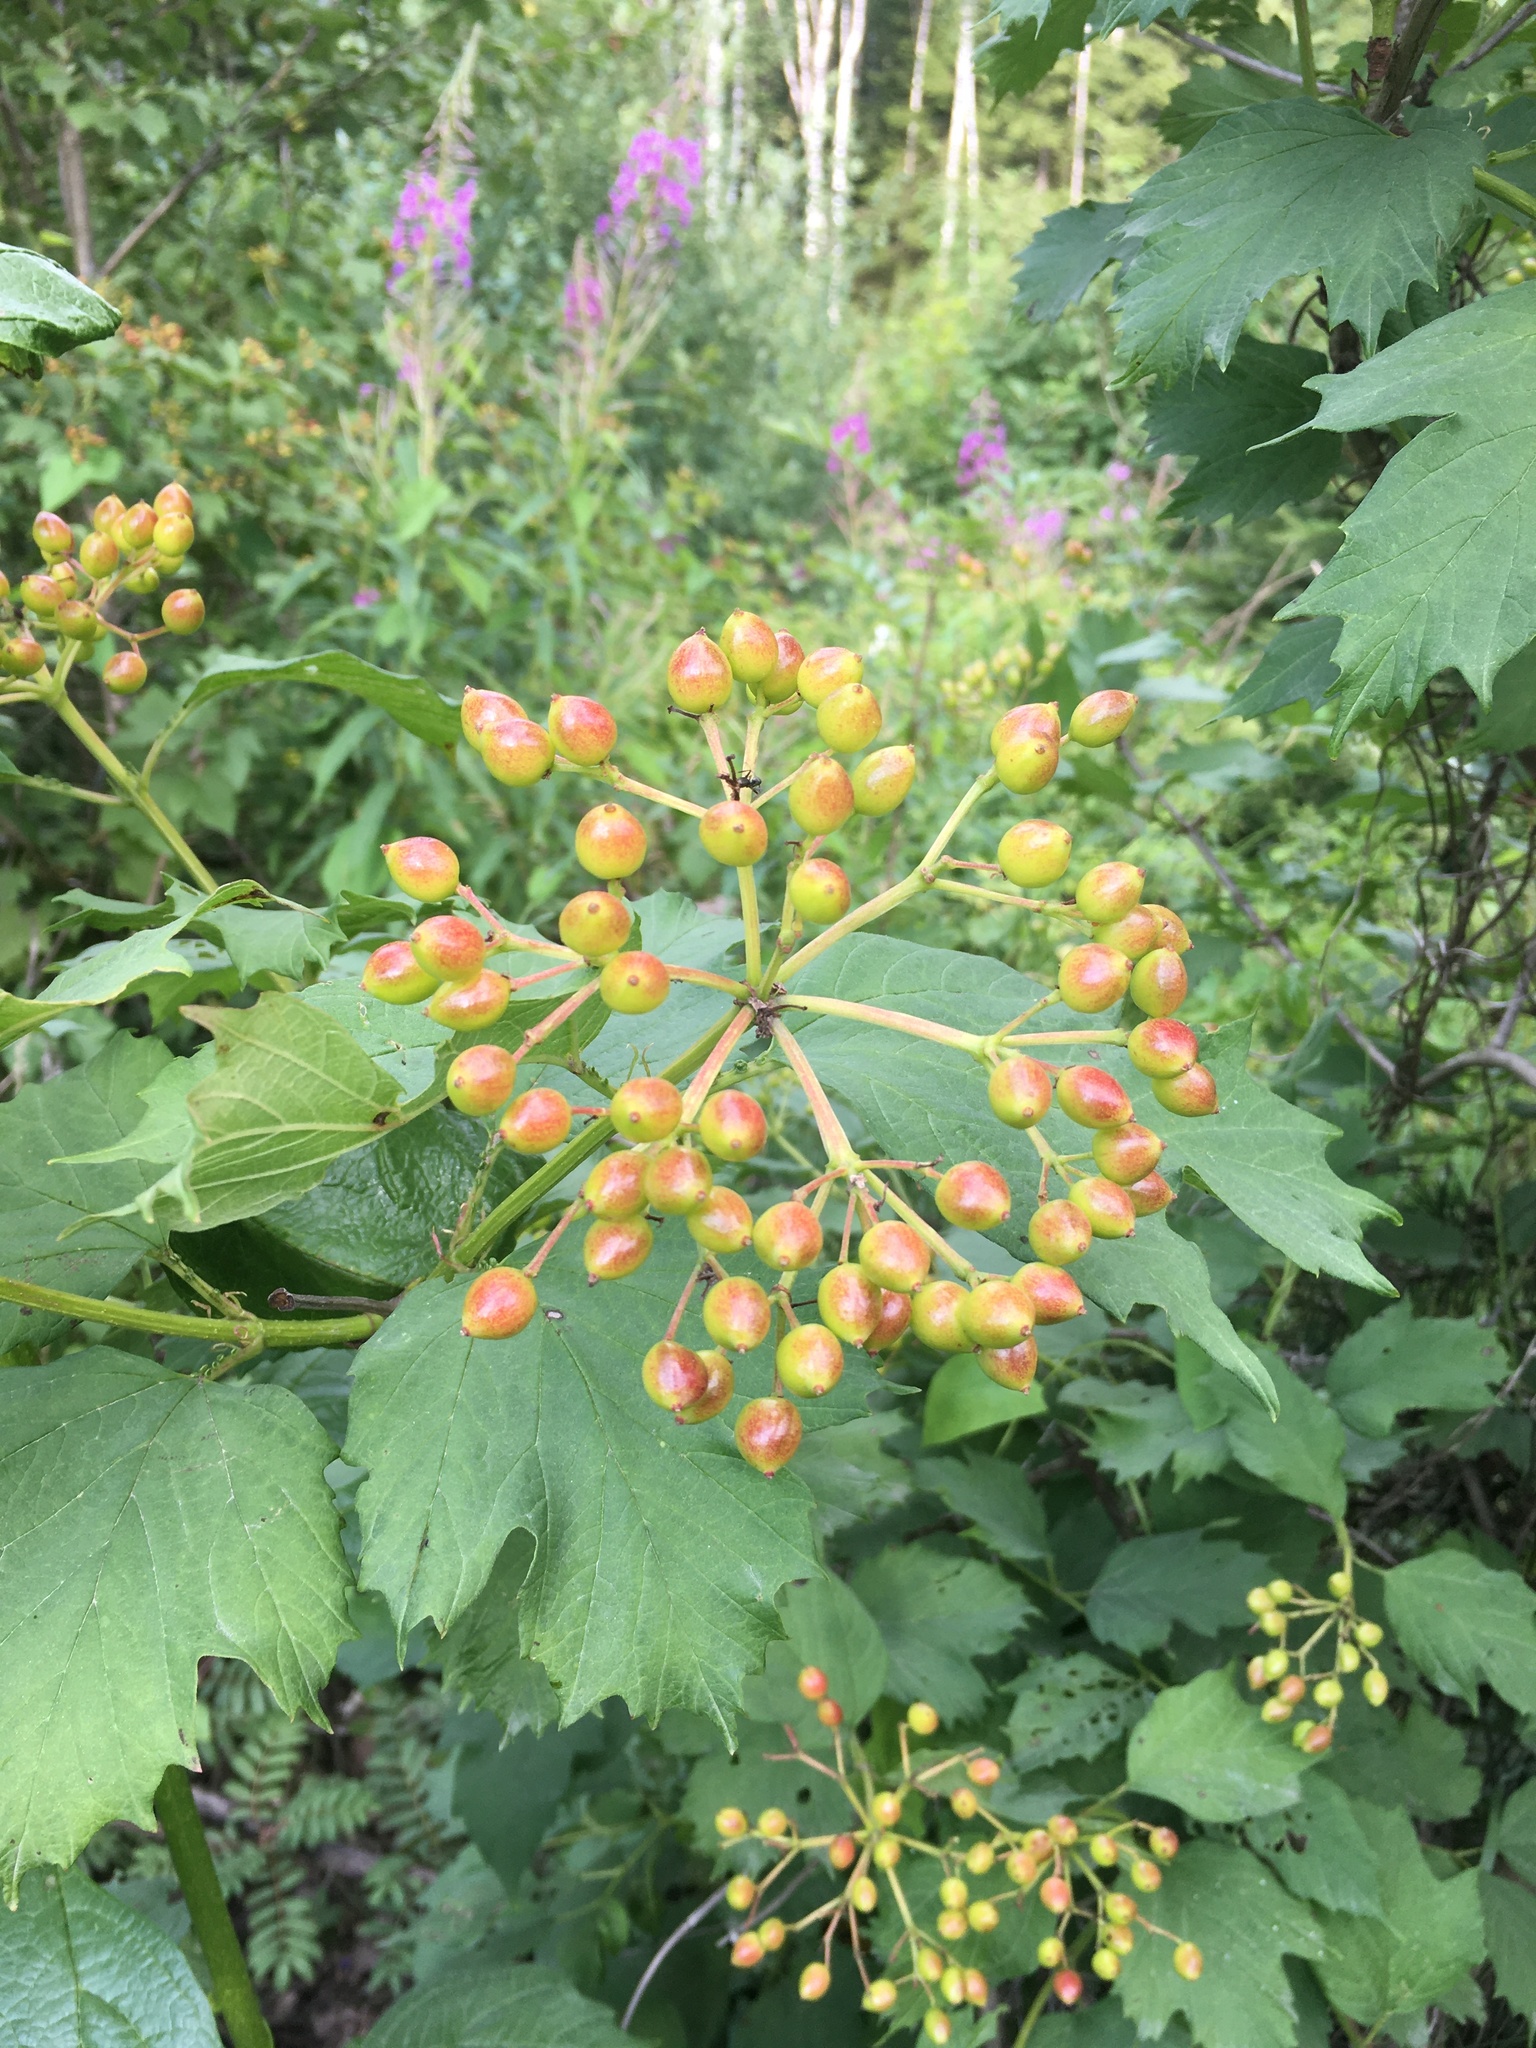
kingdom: Plantae
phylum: Tracheophyta
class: Magnoliopsida
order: Dipsacales
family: Viburnaceae
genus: Viburnum
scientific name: Viburnum opulus
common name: Guelder-rose
